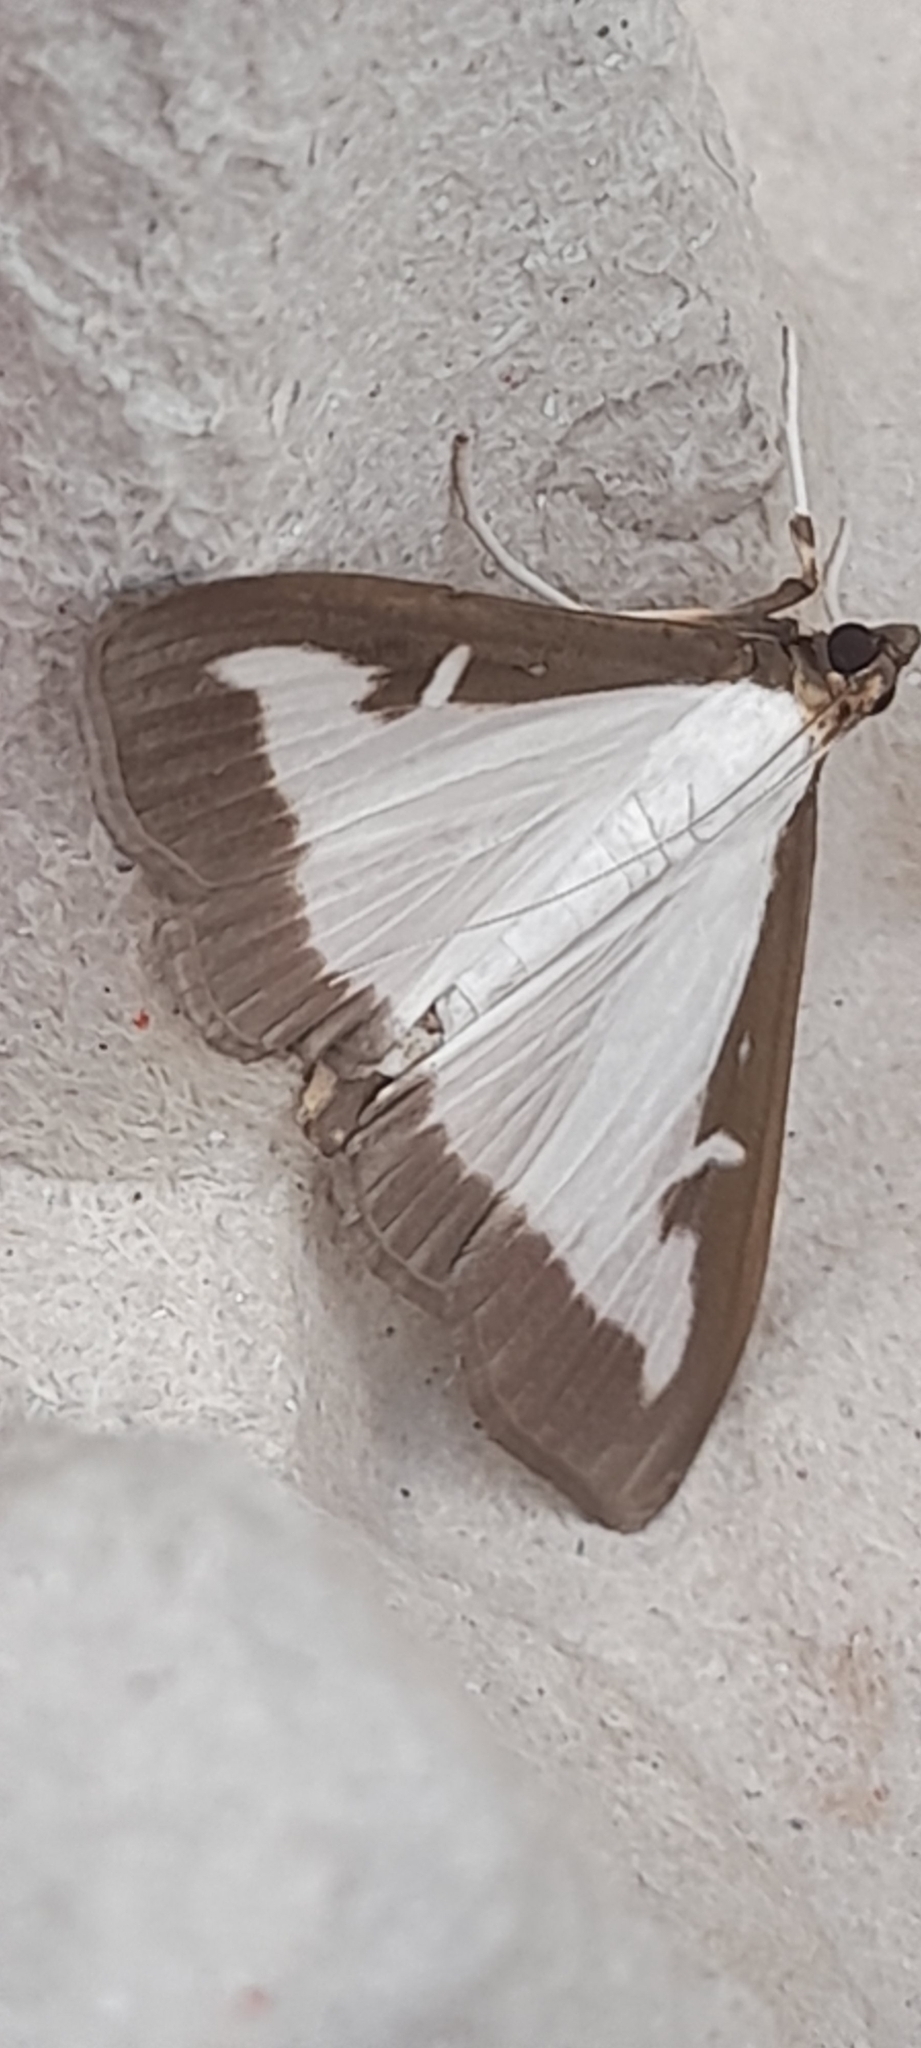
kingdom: Animalia
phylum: Arthropoda
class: Insecta
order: Lepidoptera
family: Crambidae
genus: Cydalima
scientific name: Cydalima perspectalis
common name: Box tree moth
